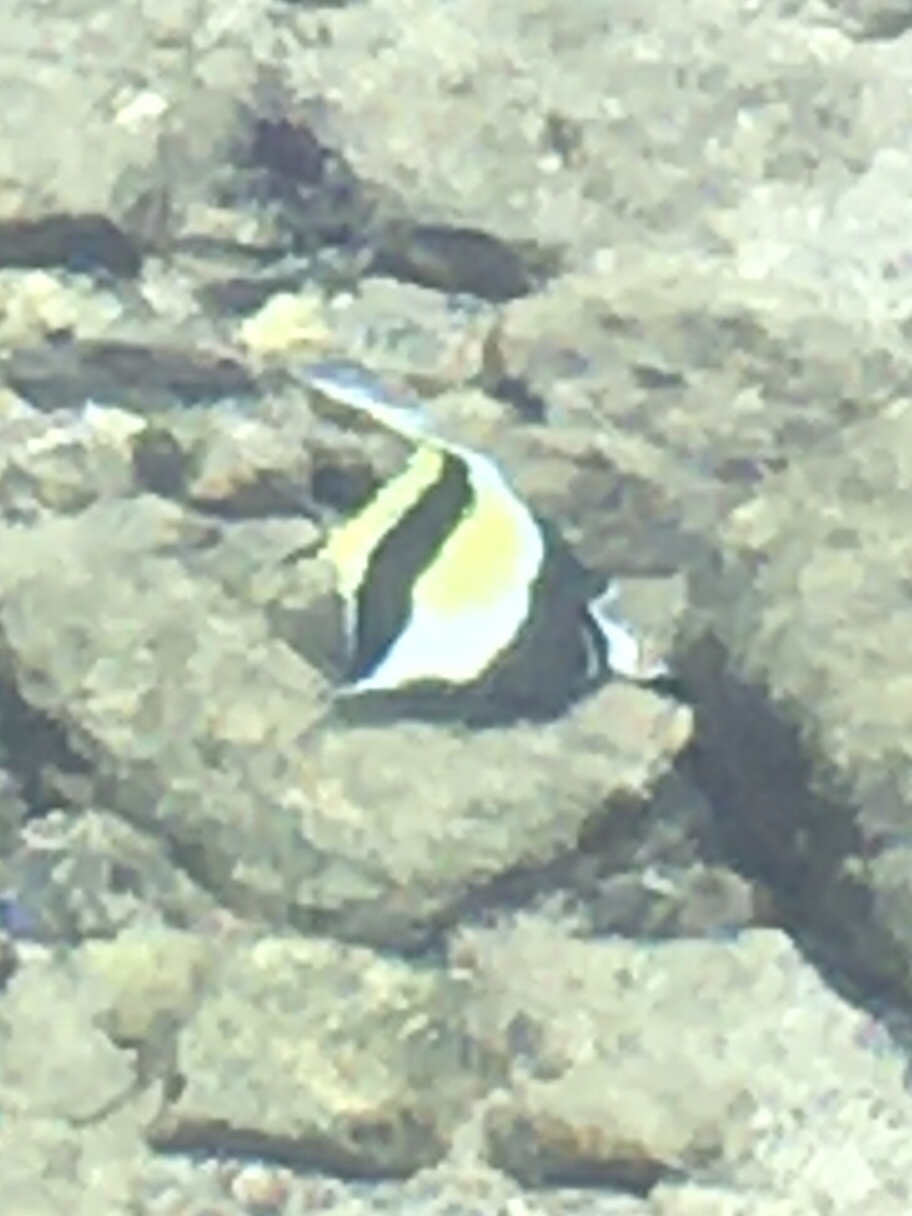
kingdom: Animalia
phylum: Chordata
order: Perciformes
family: Zanclidae
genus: Zanclus
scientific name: Zanclus cornutus
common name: Moorish idol
